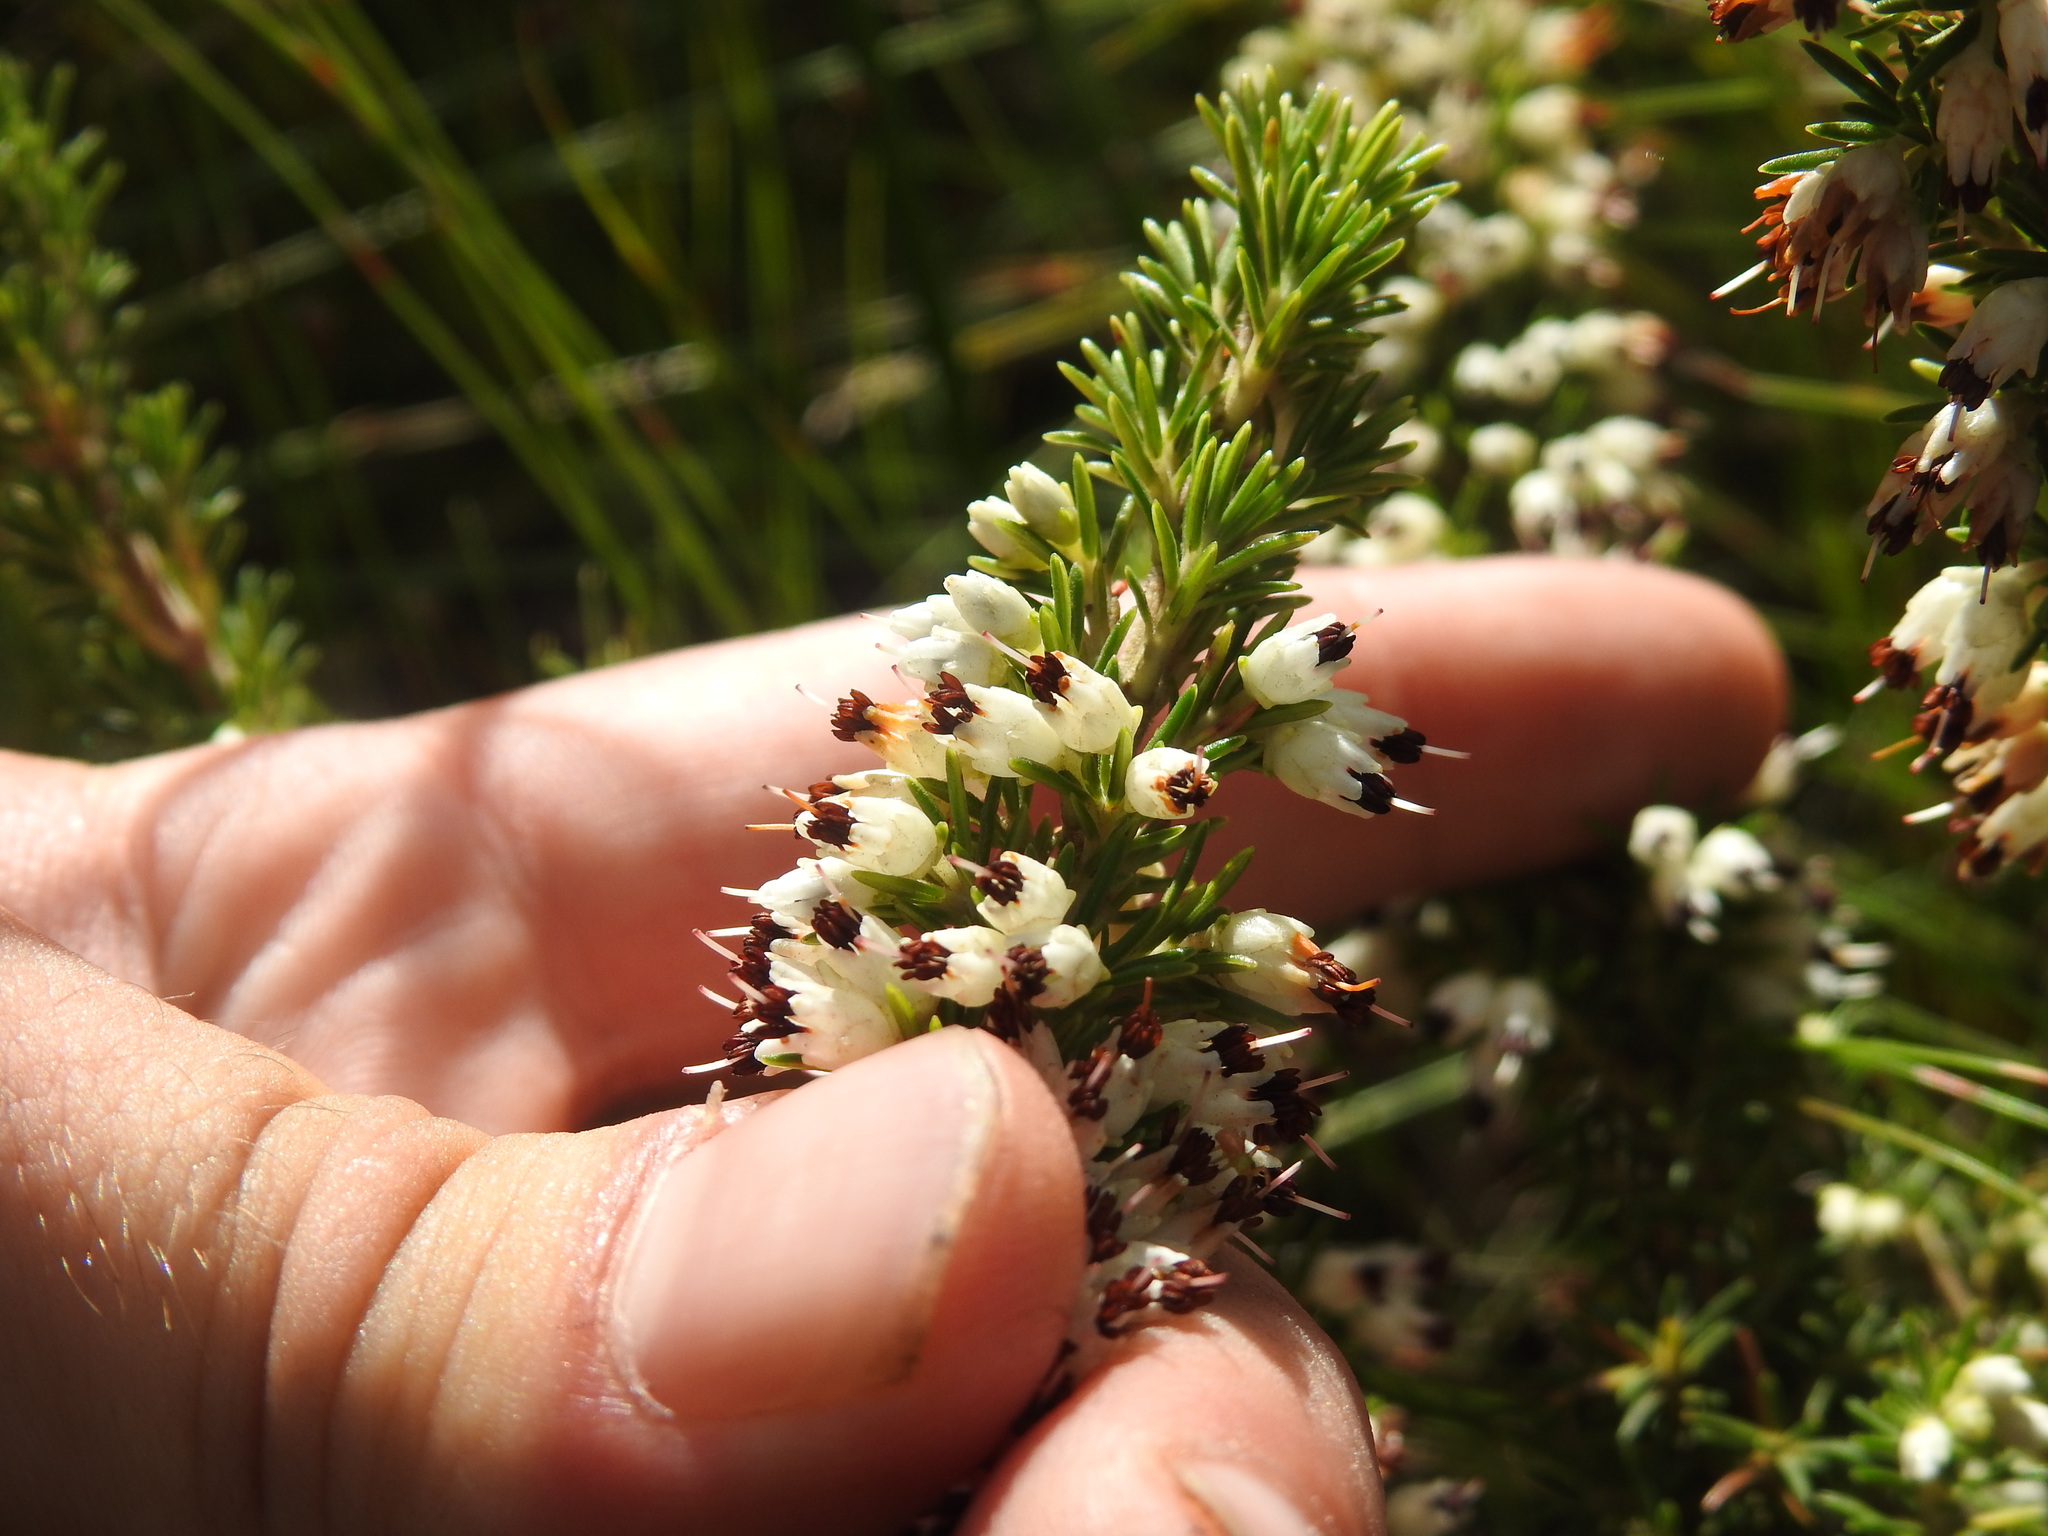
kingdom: Plantae
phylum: Tracheophyta
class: Magnoliopsida
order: Ericales
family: Ericaceae
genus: Erica
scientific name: Erica desmantha
